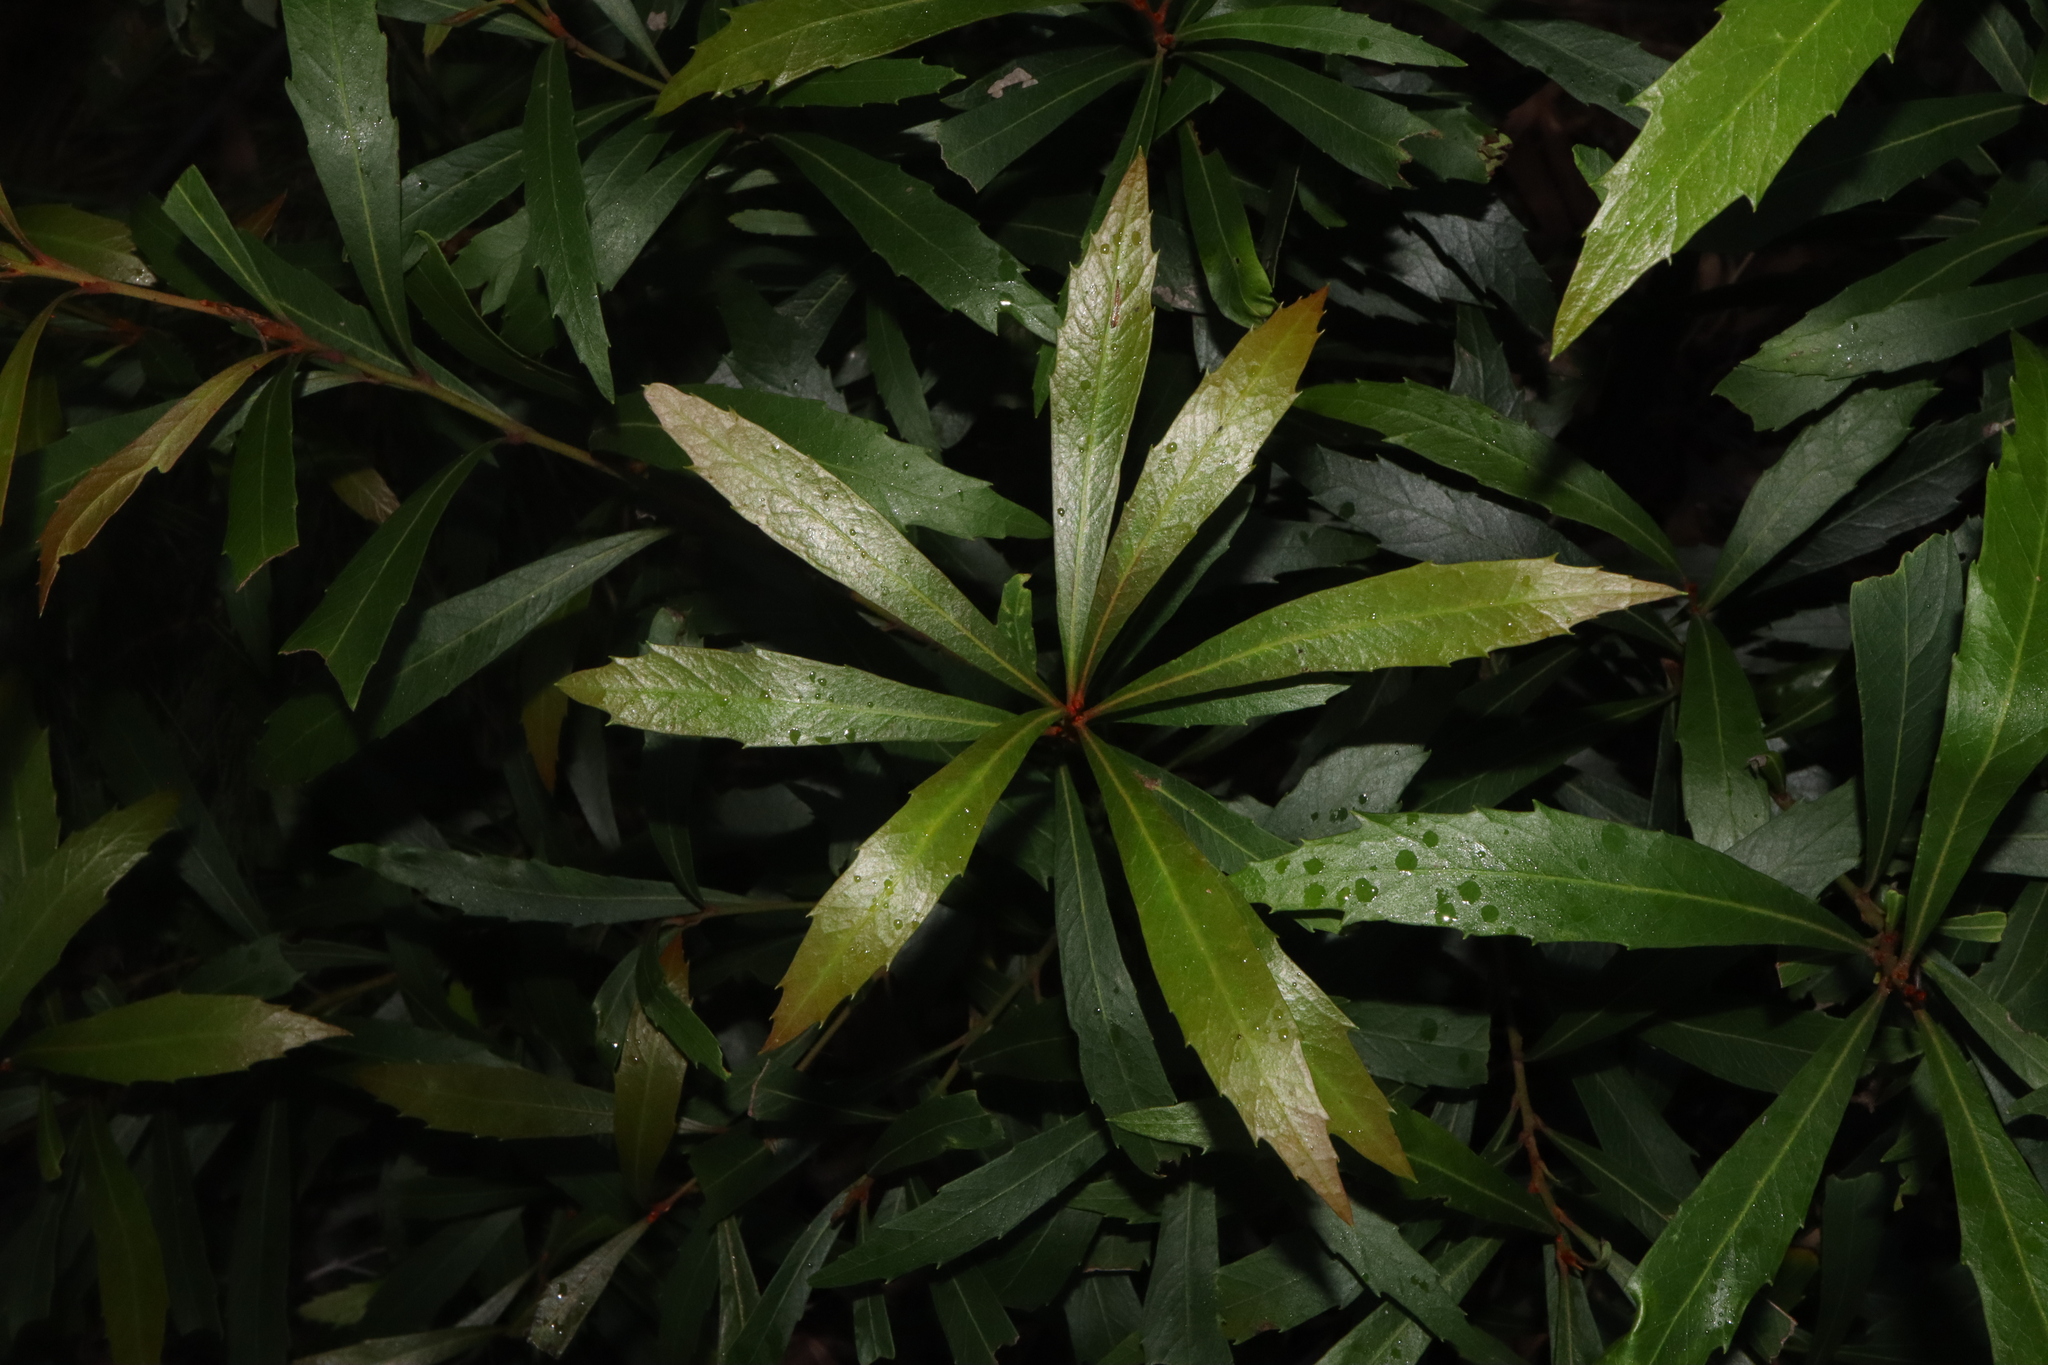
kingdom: Plantae
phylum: Tracheophyta
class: Magnoliopsida
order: Proteales
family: Proteaceae
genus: Lomatia
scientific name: Lomatia myricoides
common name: Longleaf lomatia
